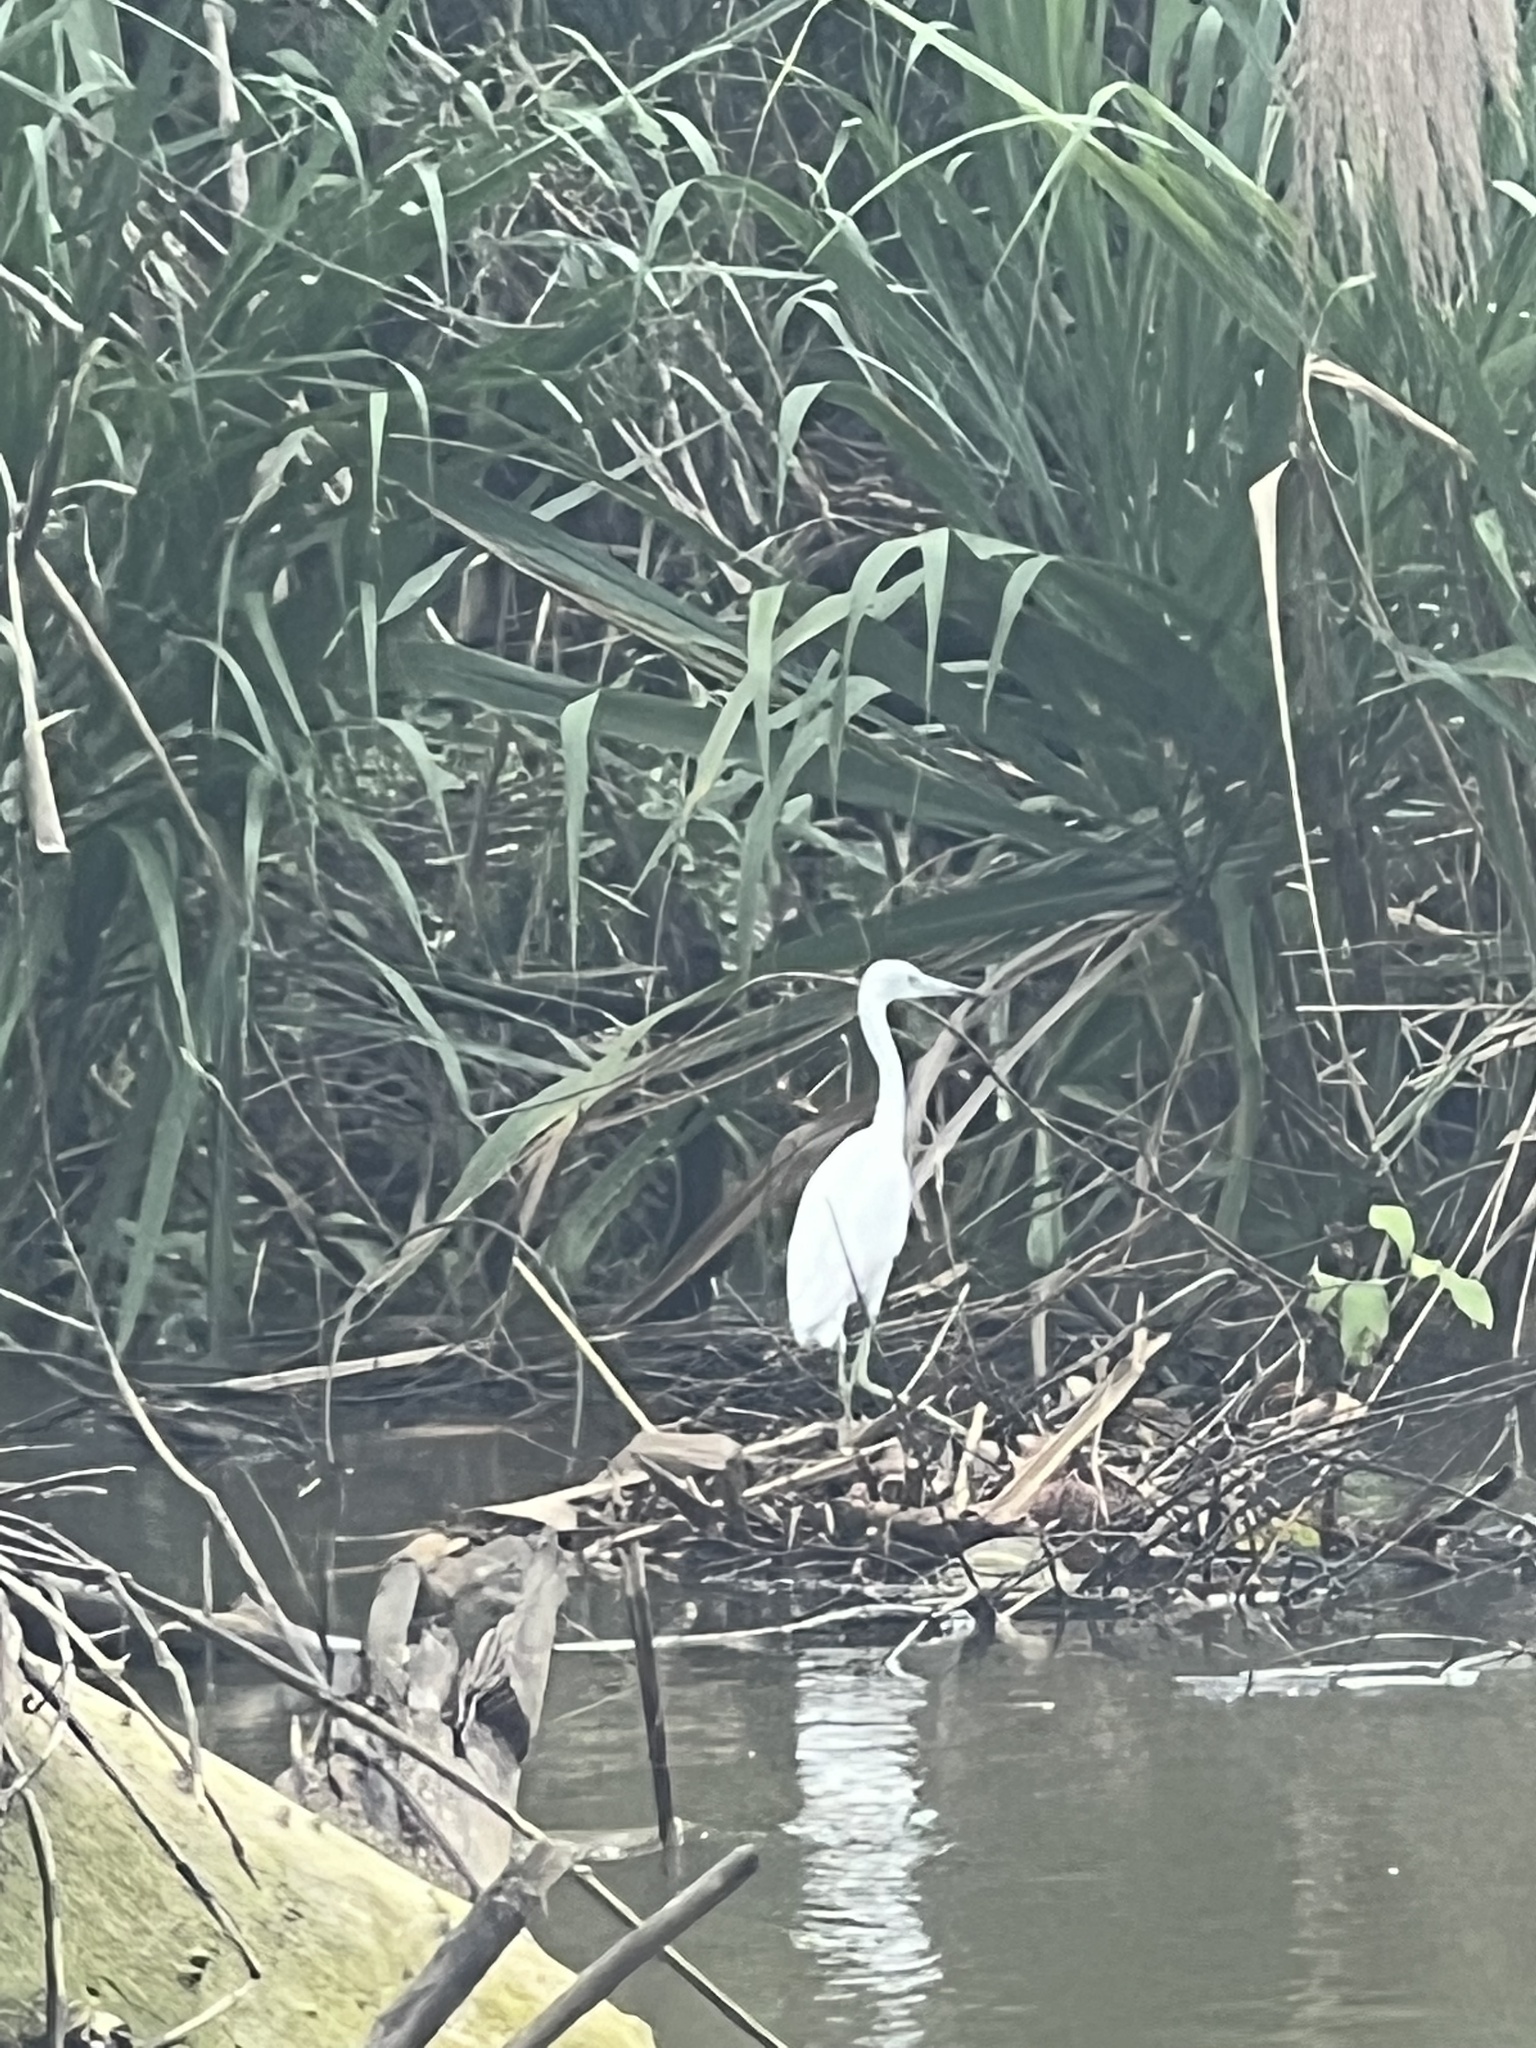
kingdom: Animalia
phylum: Chordata
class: Aves
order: Pelecaniformes
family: Ardeidae
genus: Egretta
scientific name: Egretta caerulea
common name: Little blue heron
